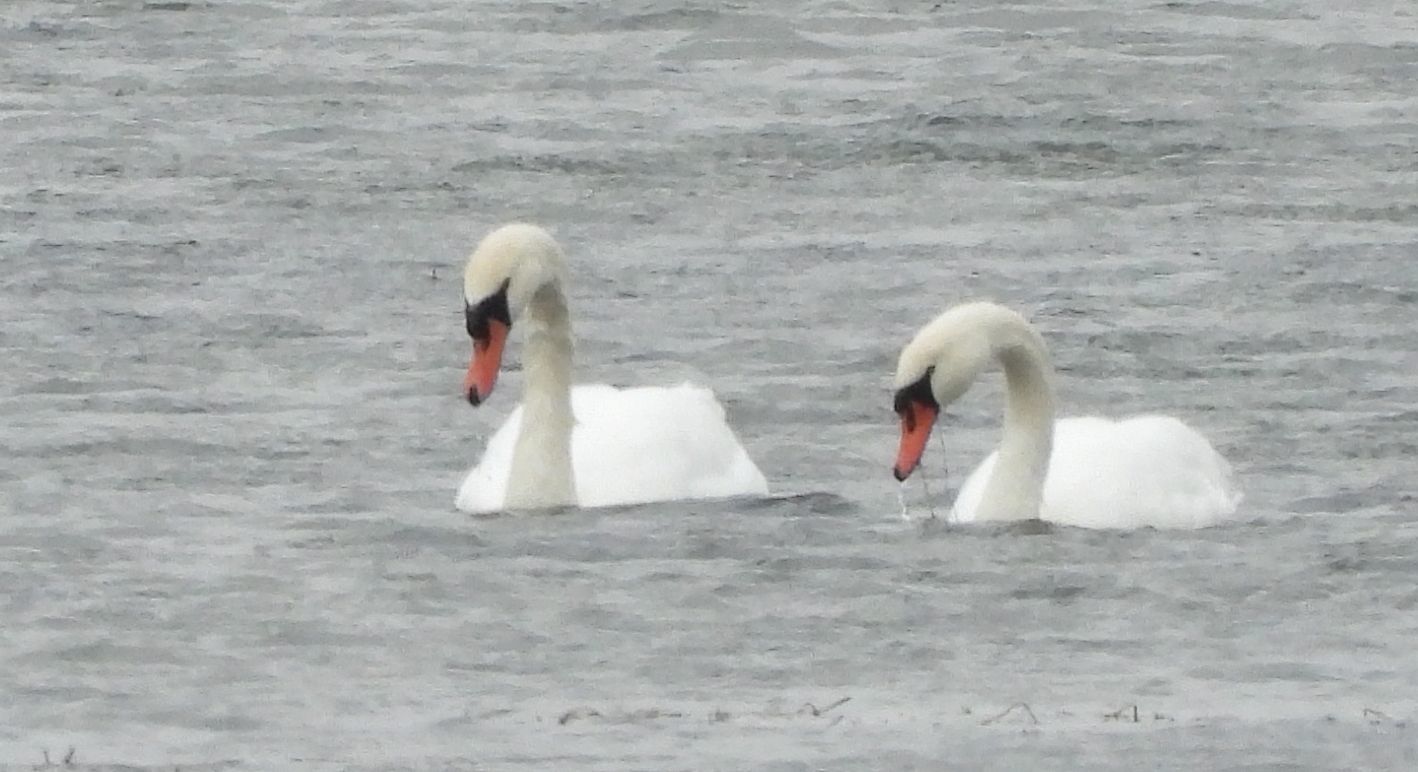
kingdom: Animalia
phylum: Chordata
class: Aves
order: Anseriformes
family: Anatidae
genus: Cygnus
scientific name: Cygnus olor
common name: Mute swan
